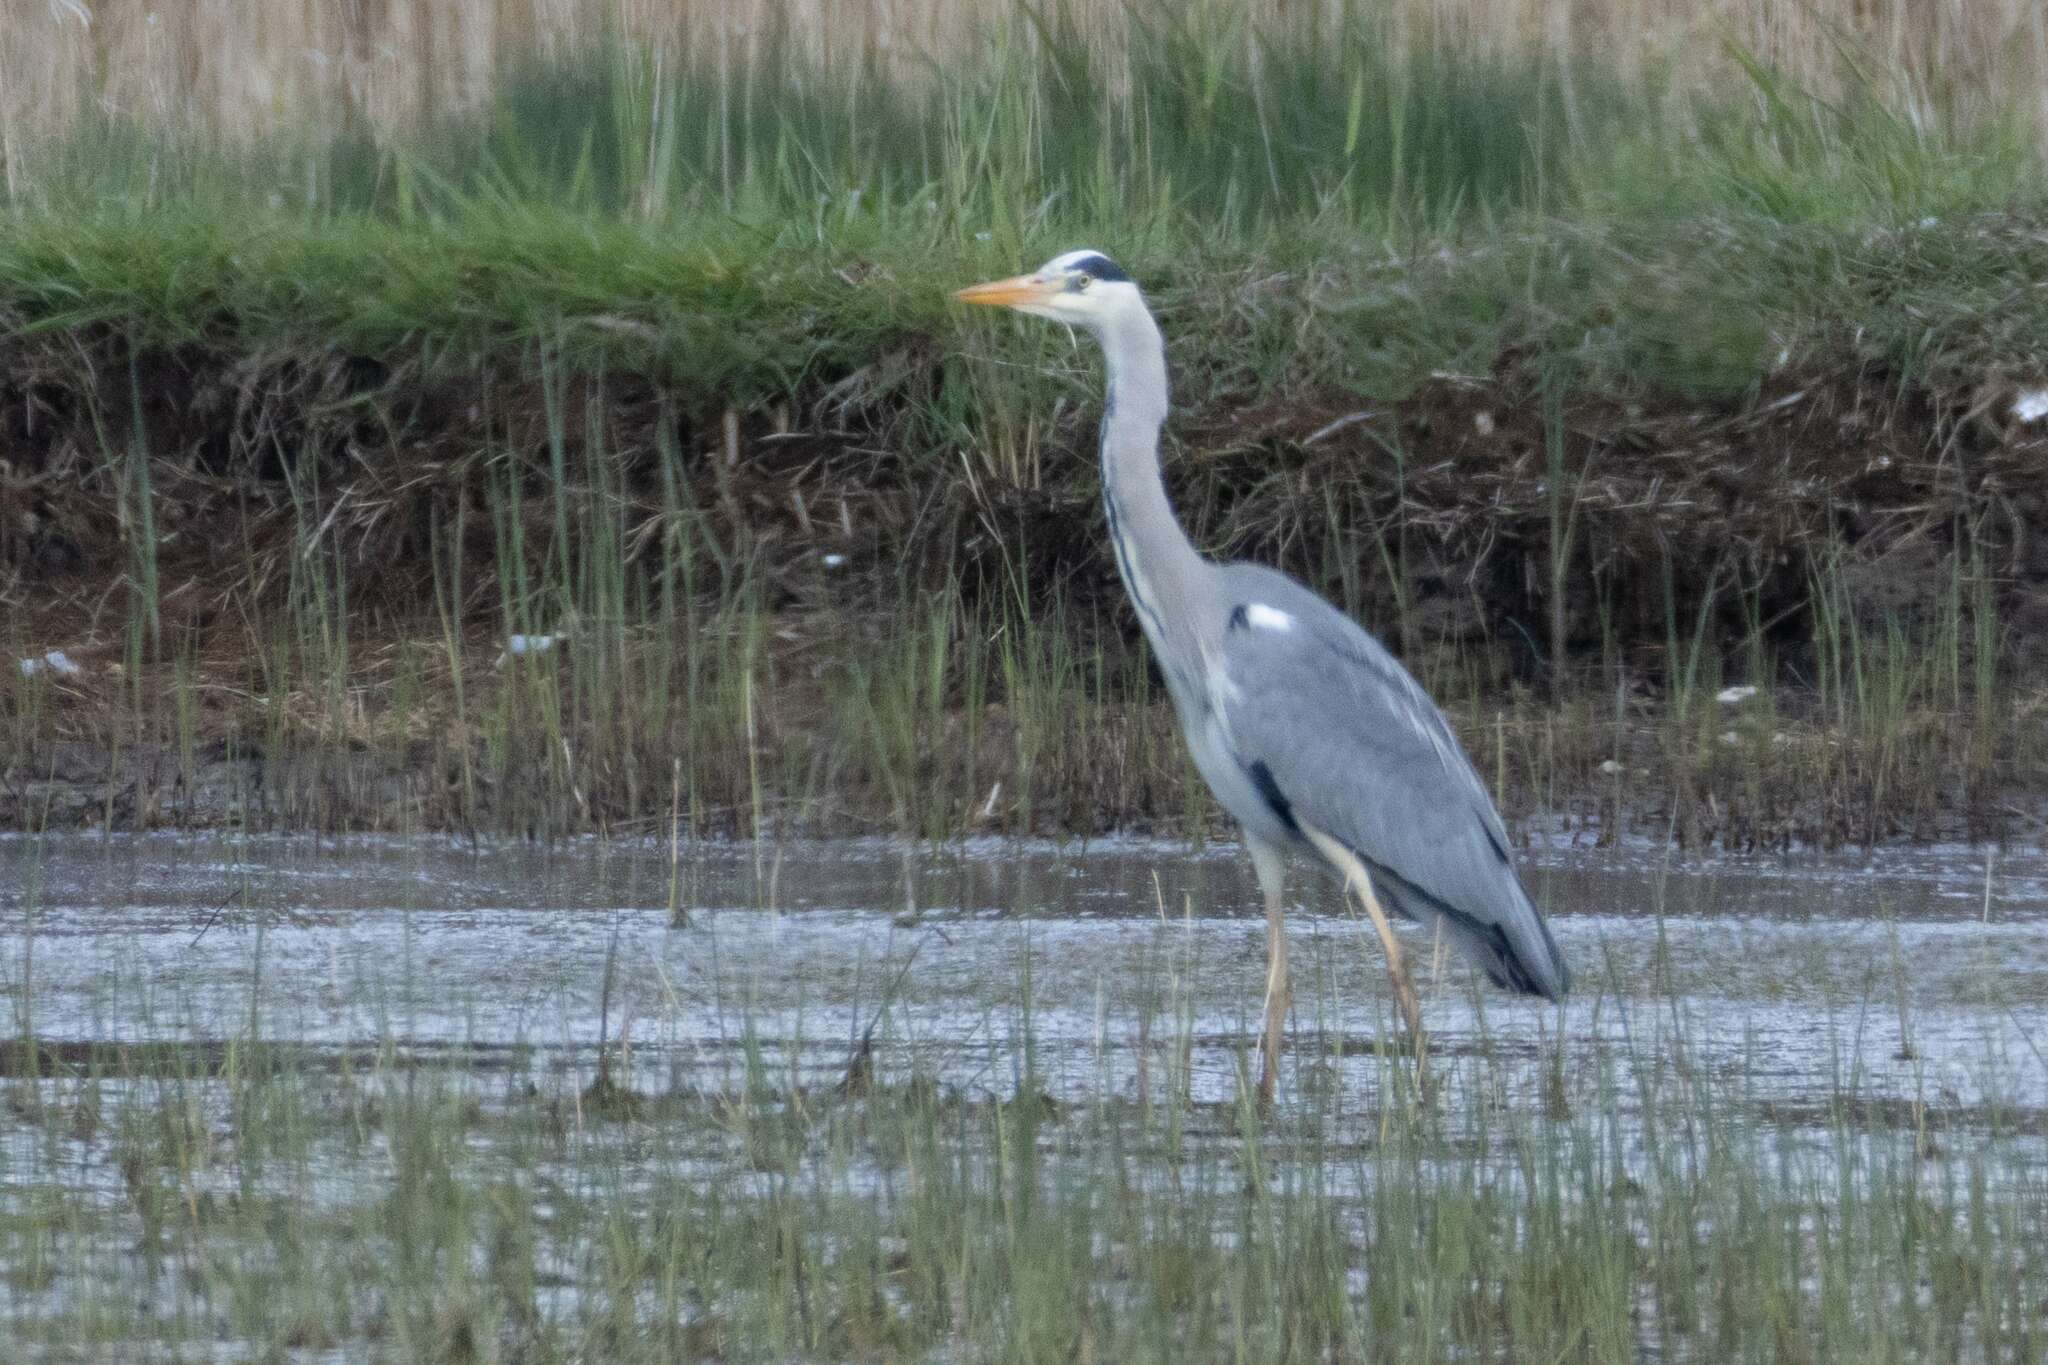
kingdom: Animalia
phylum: Chordata
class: Aves
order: Pelecaniformes
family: Ardeidae
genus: Ardea
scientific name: Ardea cinerea
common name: Grey heron
